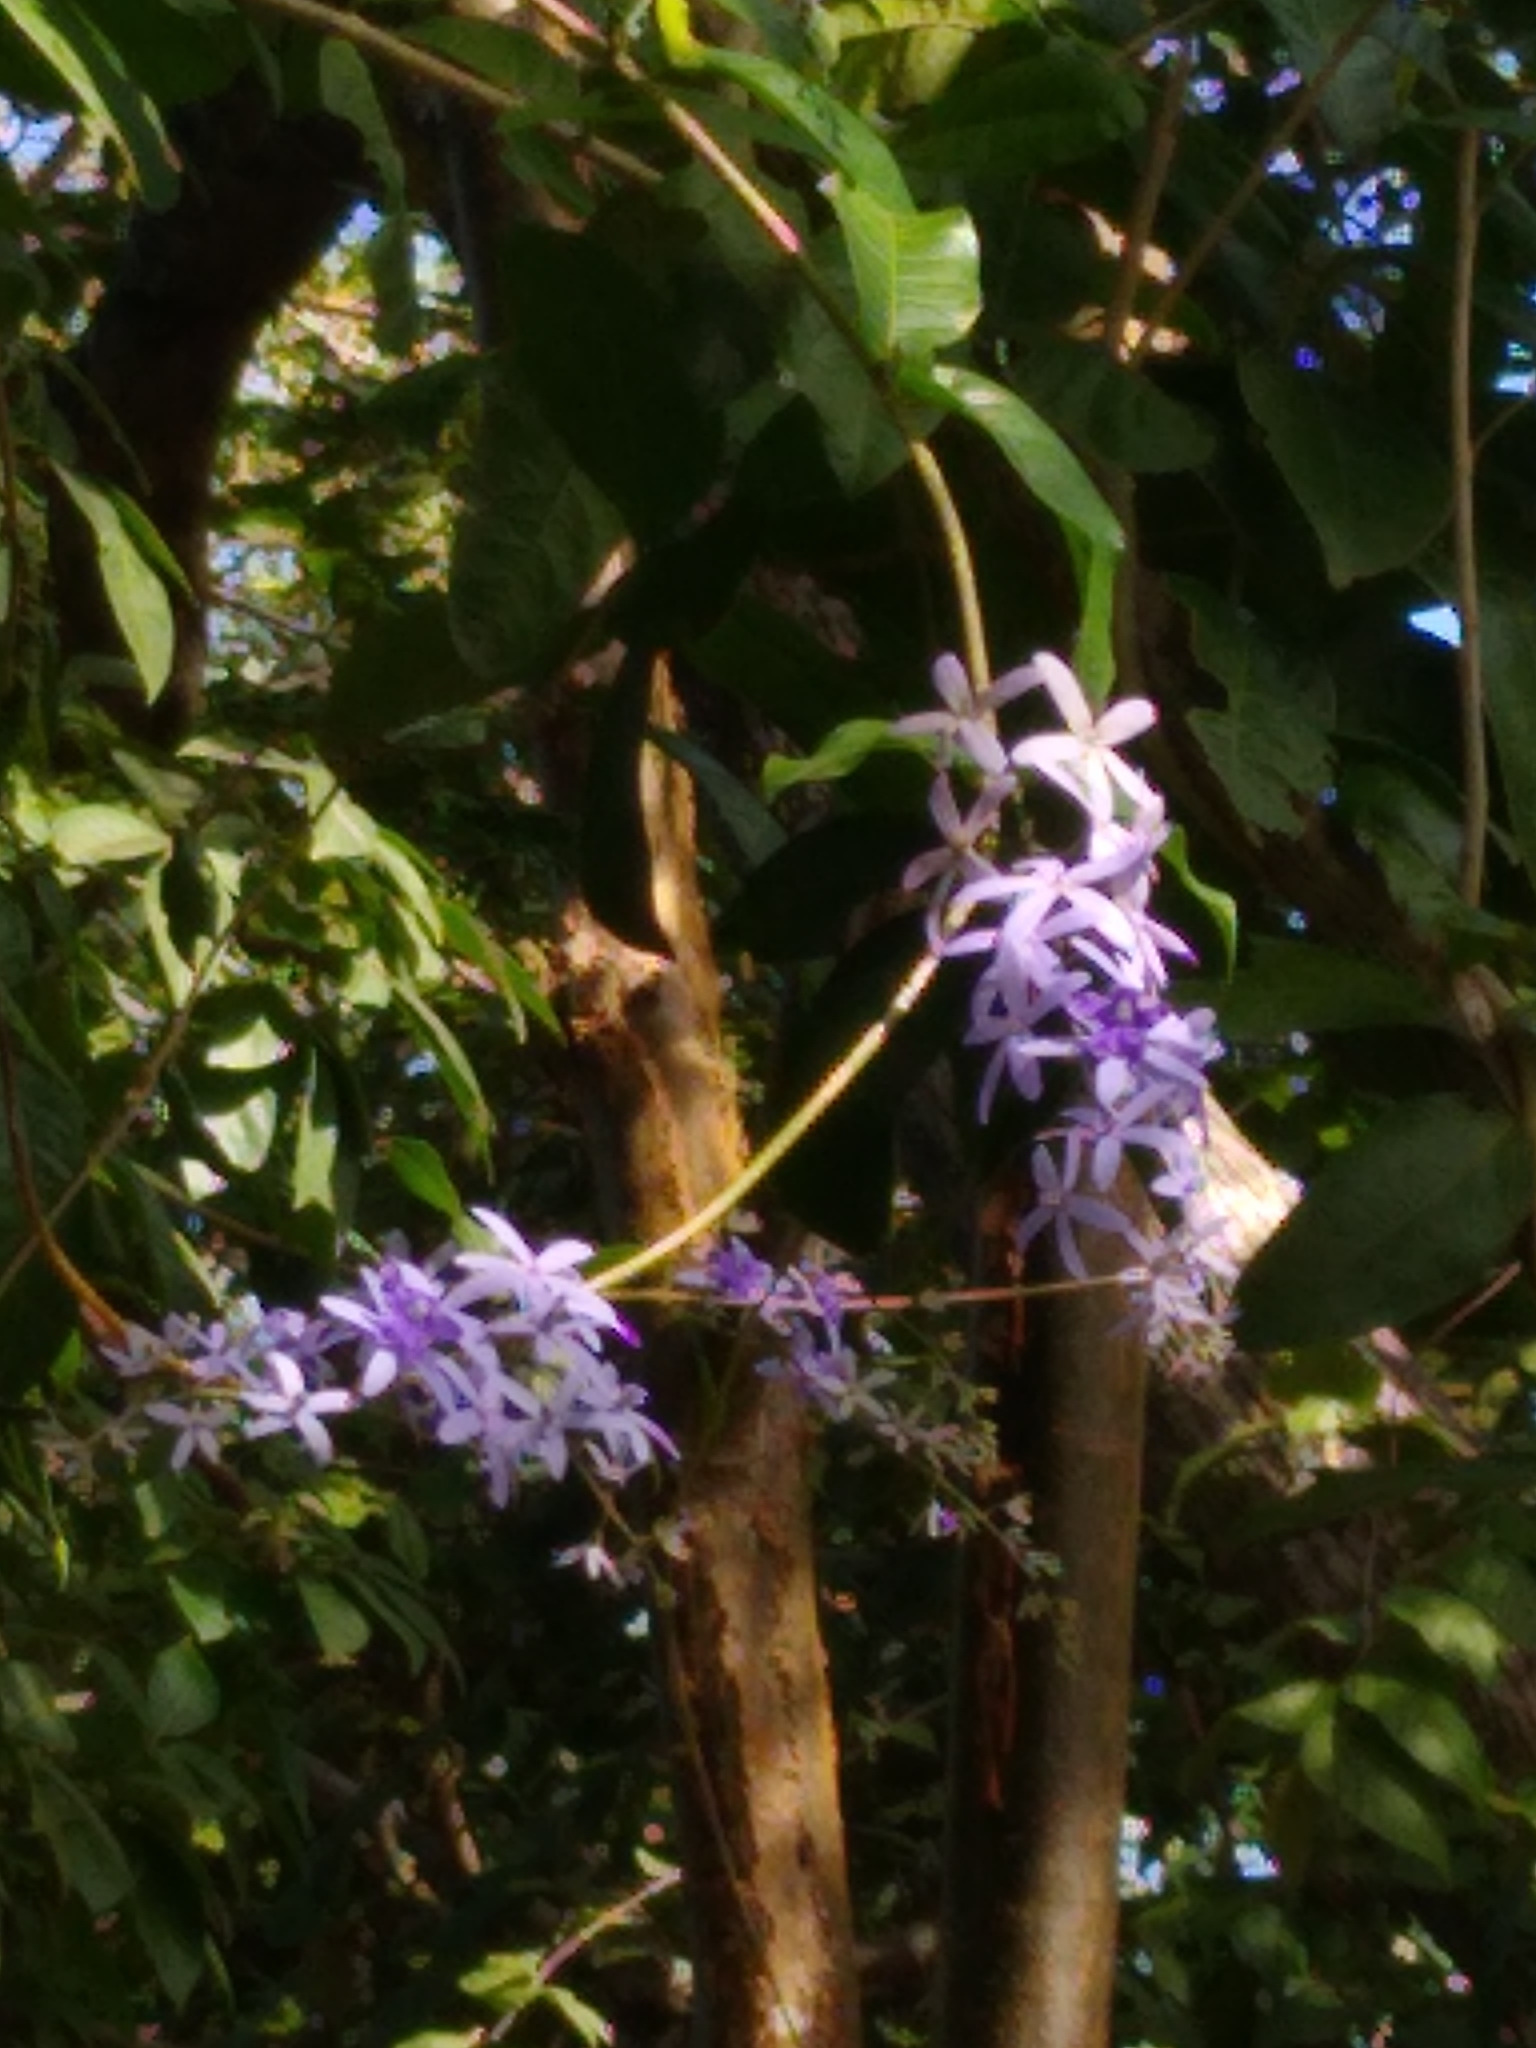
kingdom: Plantae
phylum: Tracheophyta
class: Magnoliopsida
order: Lamiales
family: Verbenaceae
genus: Petrea
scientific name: Petrea volubilis
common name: Queen's-wreath
